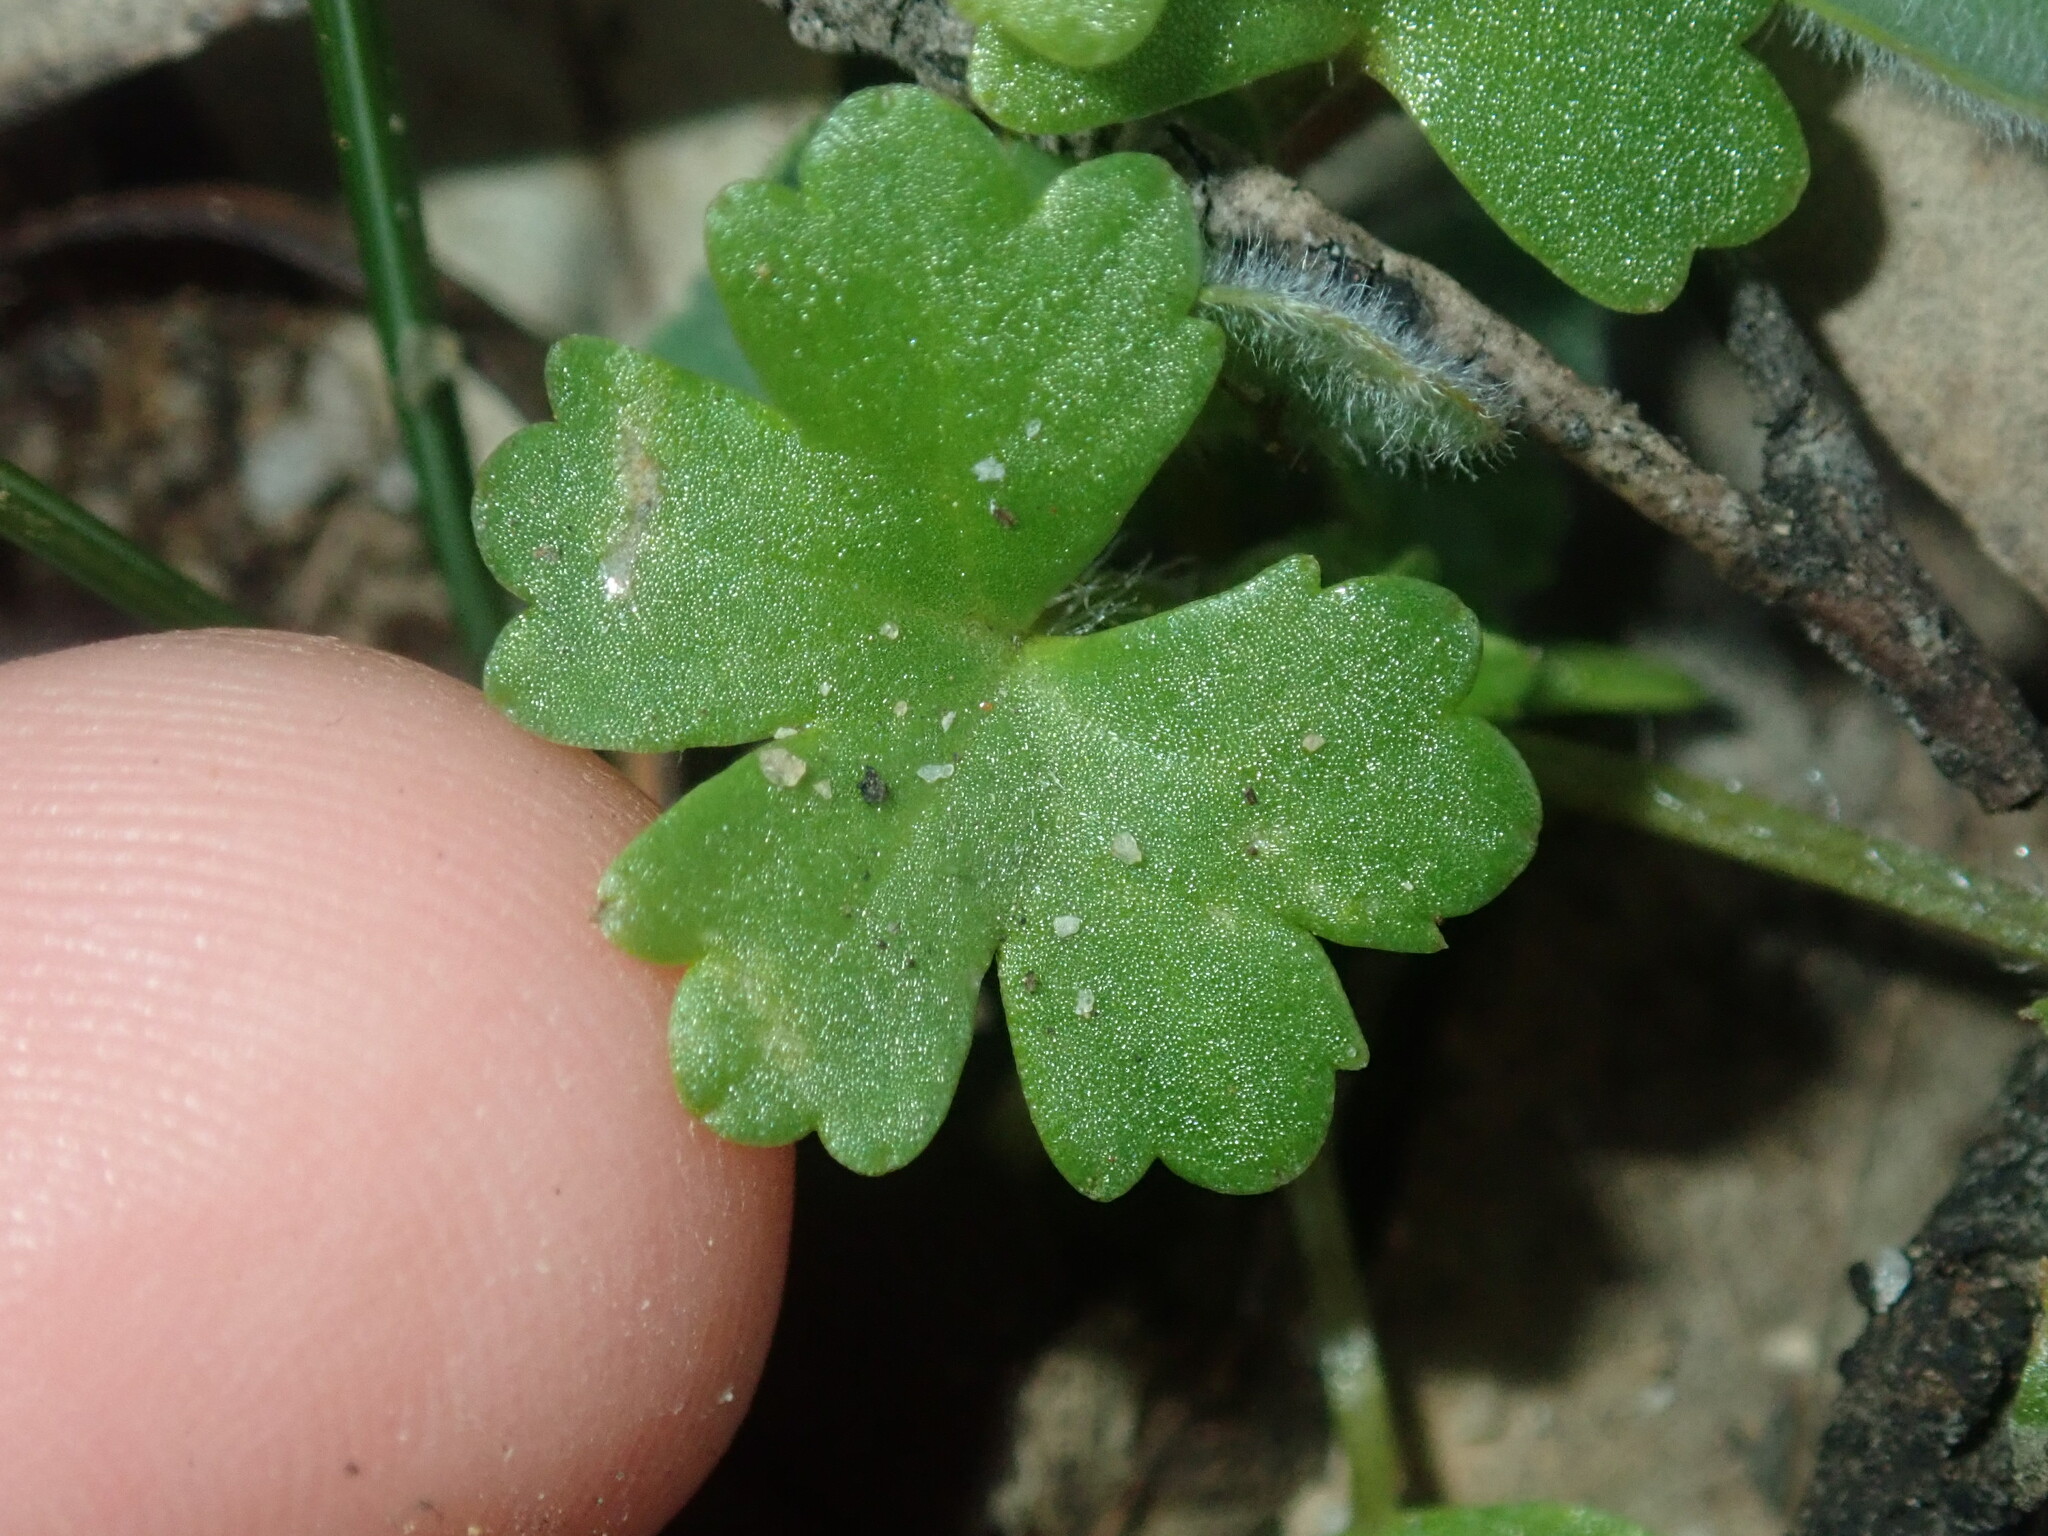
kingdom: Plantae
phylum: Tracheophyta
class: Magnoliopsida
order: Apiales
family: Araliaceae
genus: Hydrocotyle
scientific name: Hydrocotyle hirta
